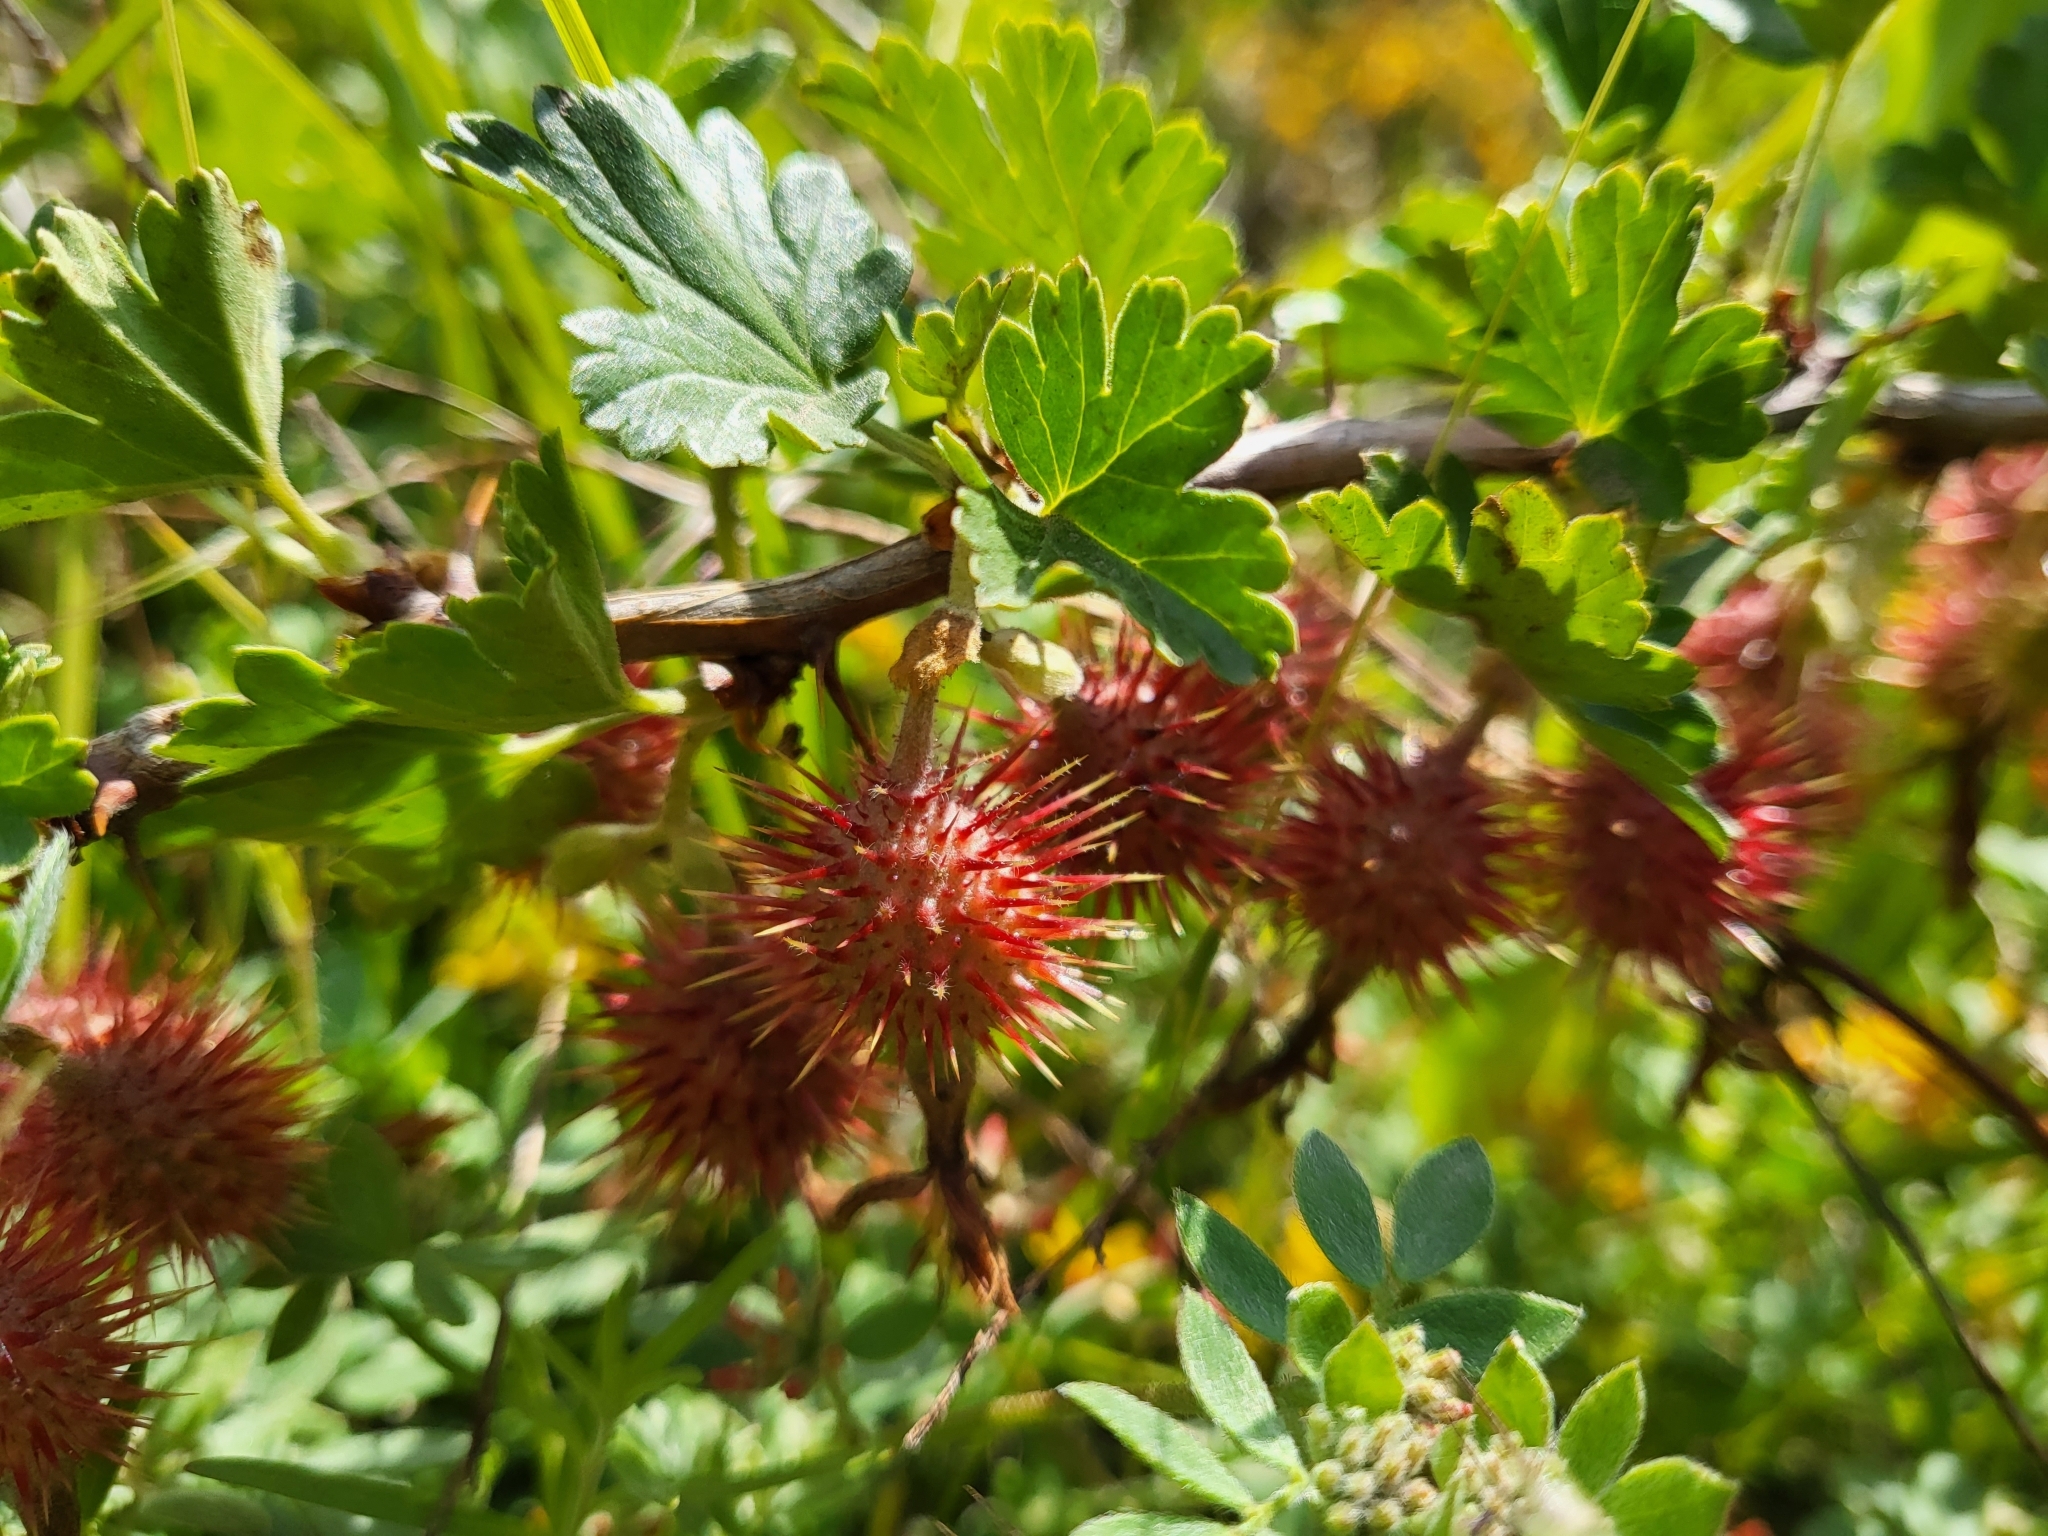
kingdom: Plantae
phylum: Tracheophyta
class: Magnoliopsida
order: Saxifragales
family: Grossulariaceae
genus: Ribes
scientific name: Ribes roezlii
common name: Sierra gooseberry
